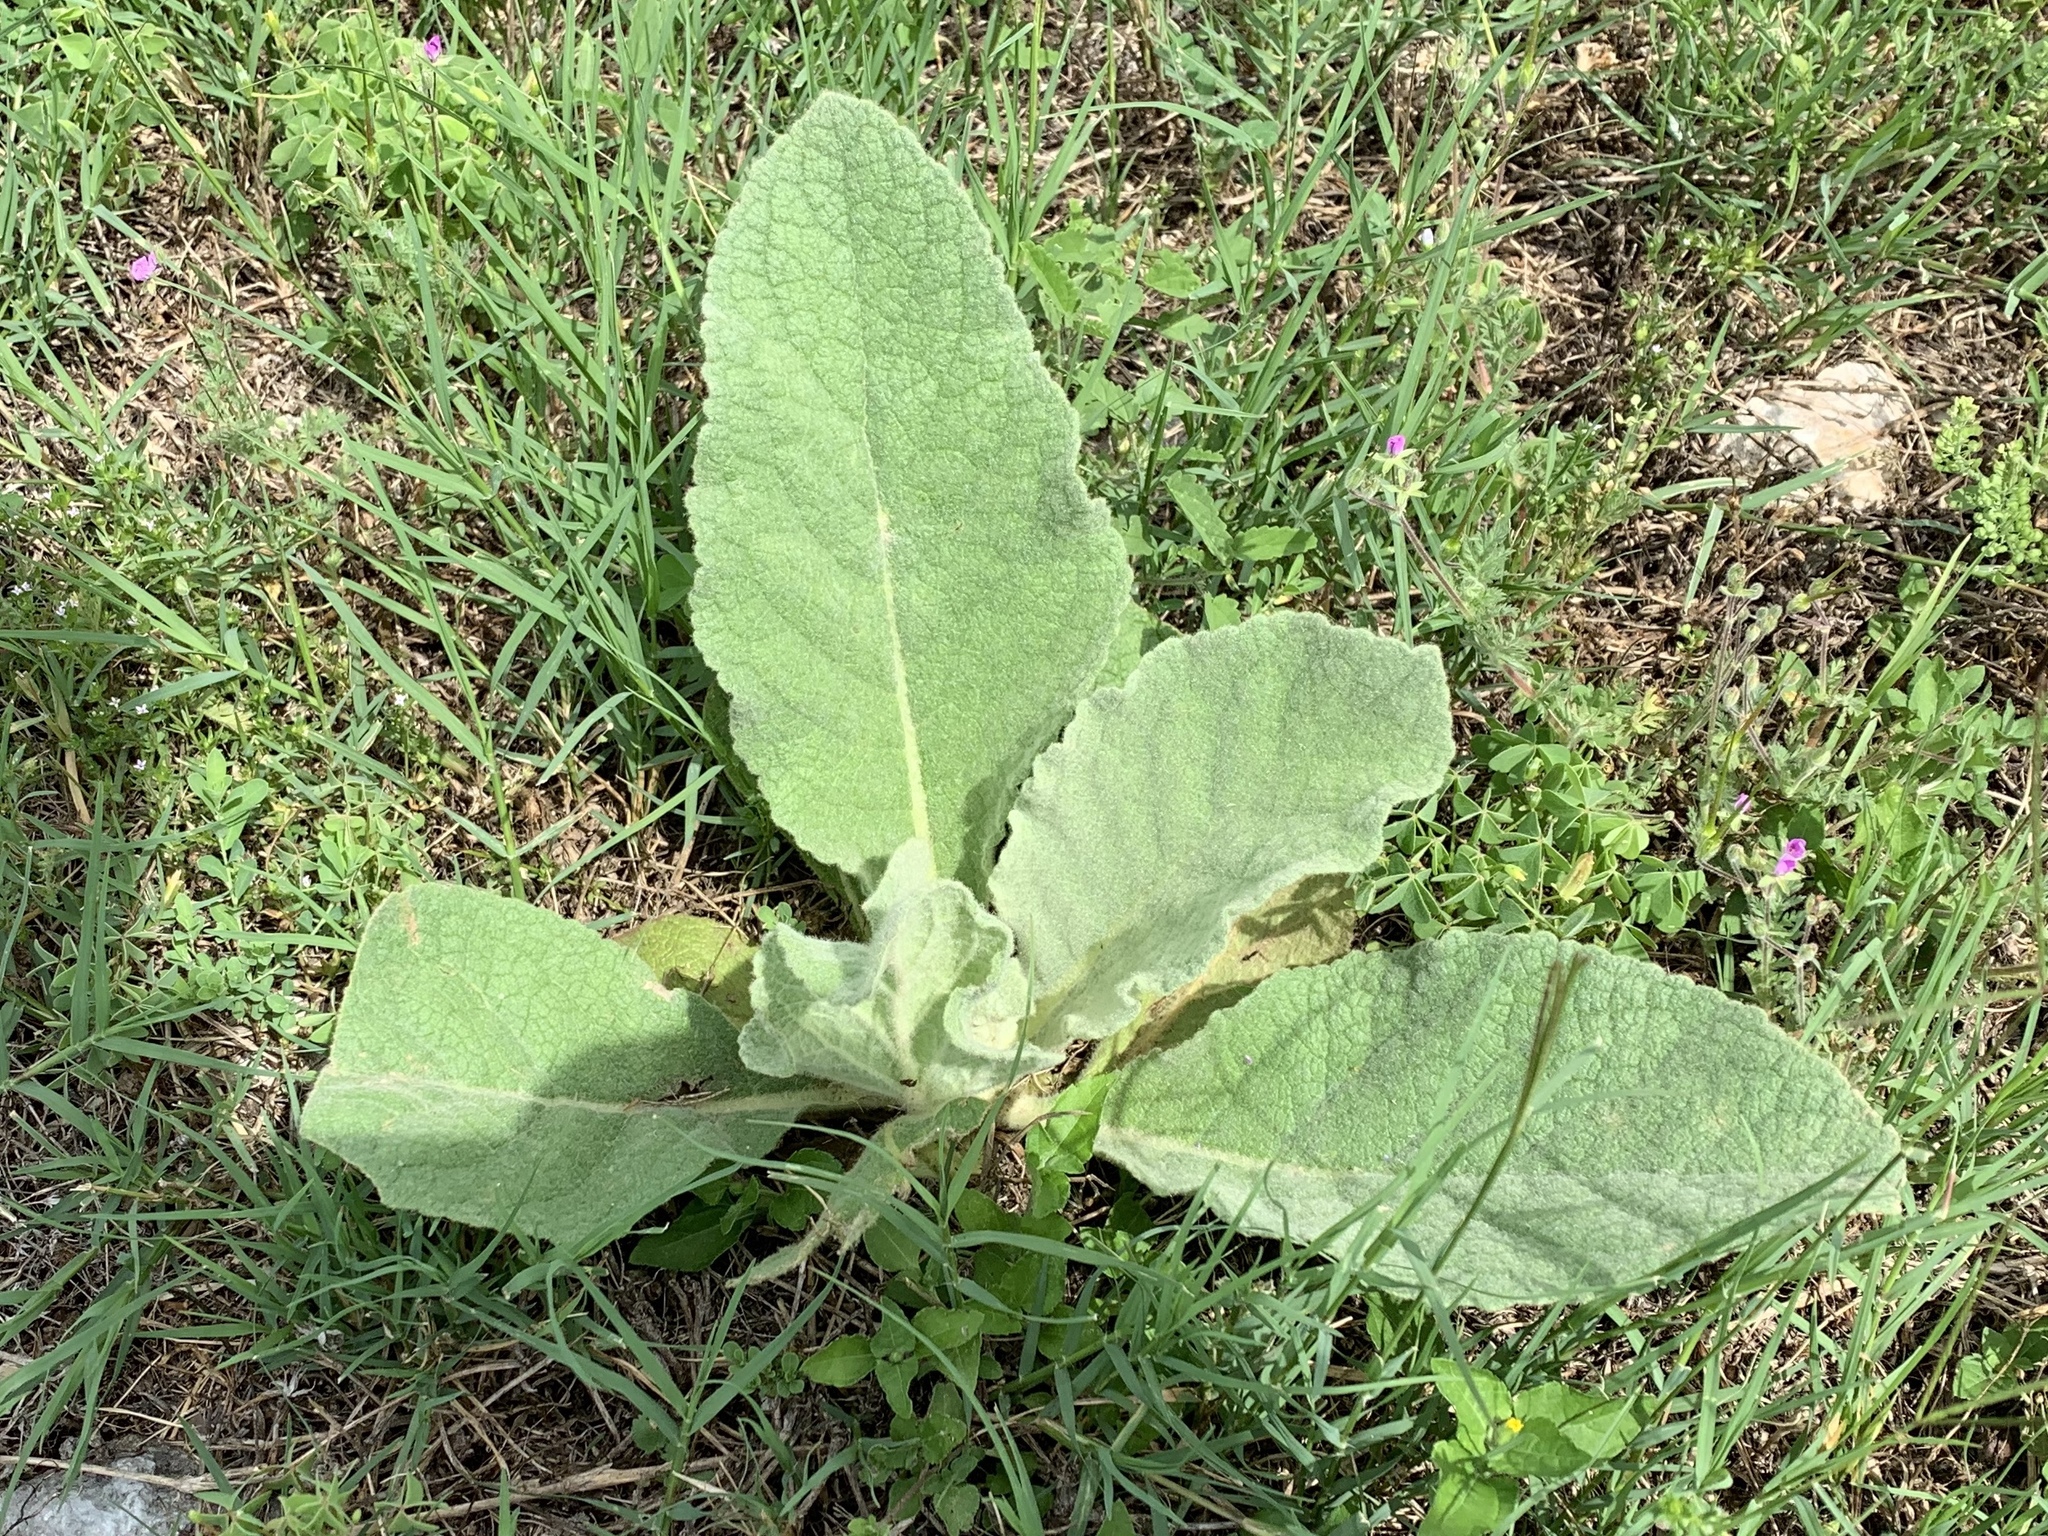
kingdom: Plantae
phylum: Tracheophyta
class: Magnoliopsida
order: Lamiales
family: Scrophulariaceae
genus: Verbascum
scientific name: Verbascum thapsus
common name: Common mullein
